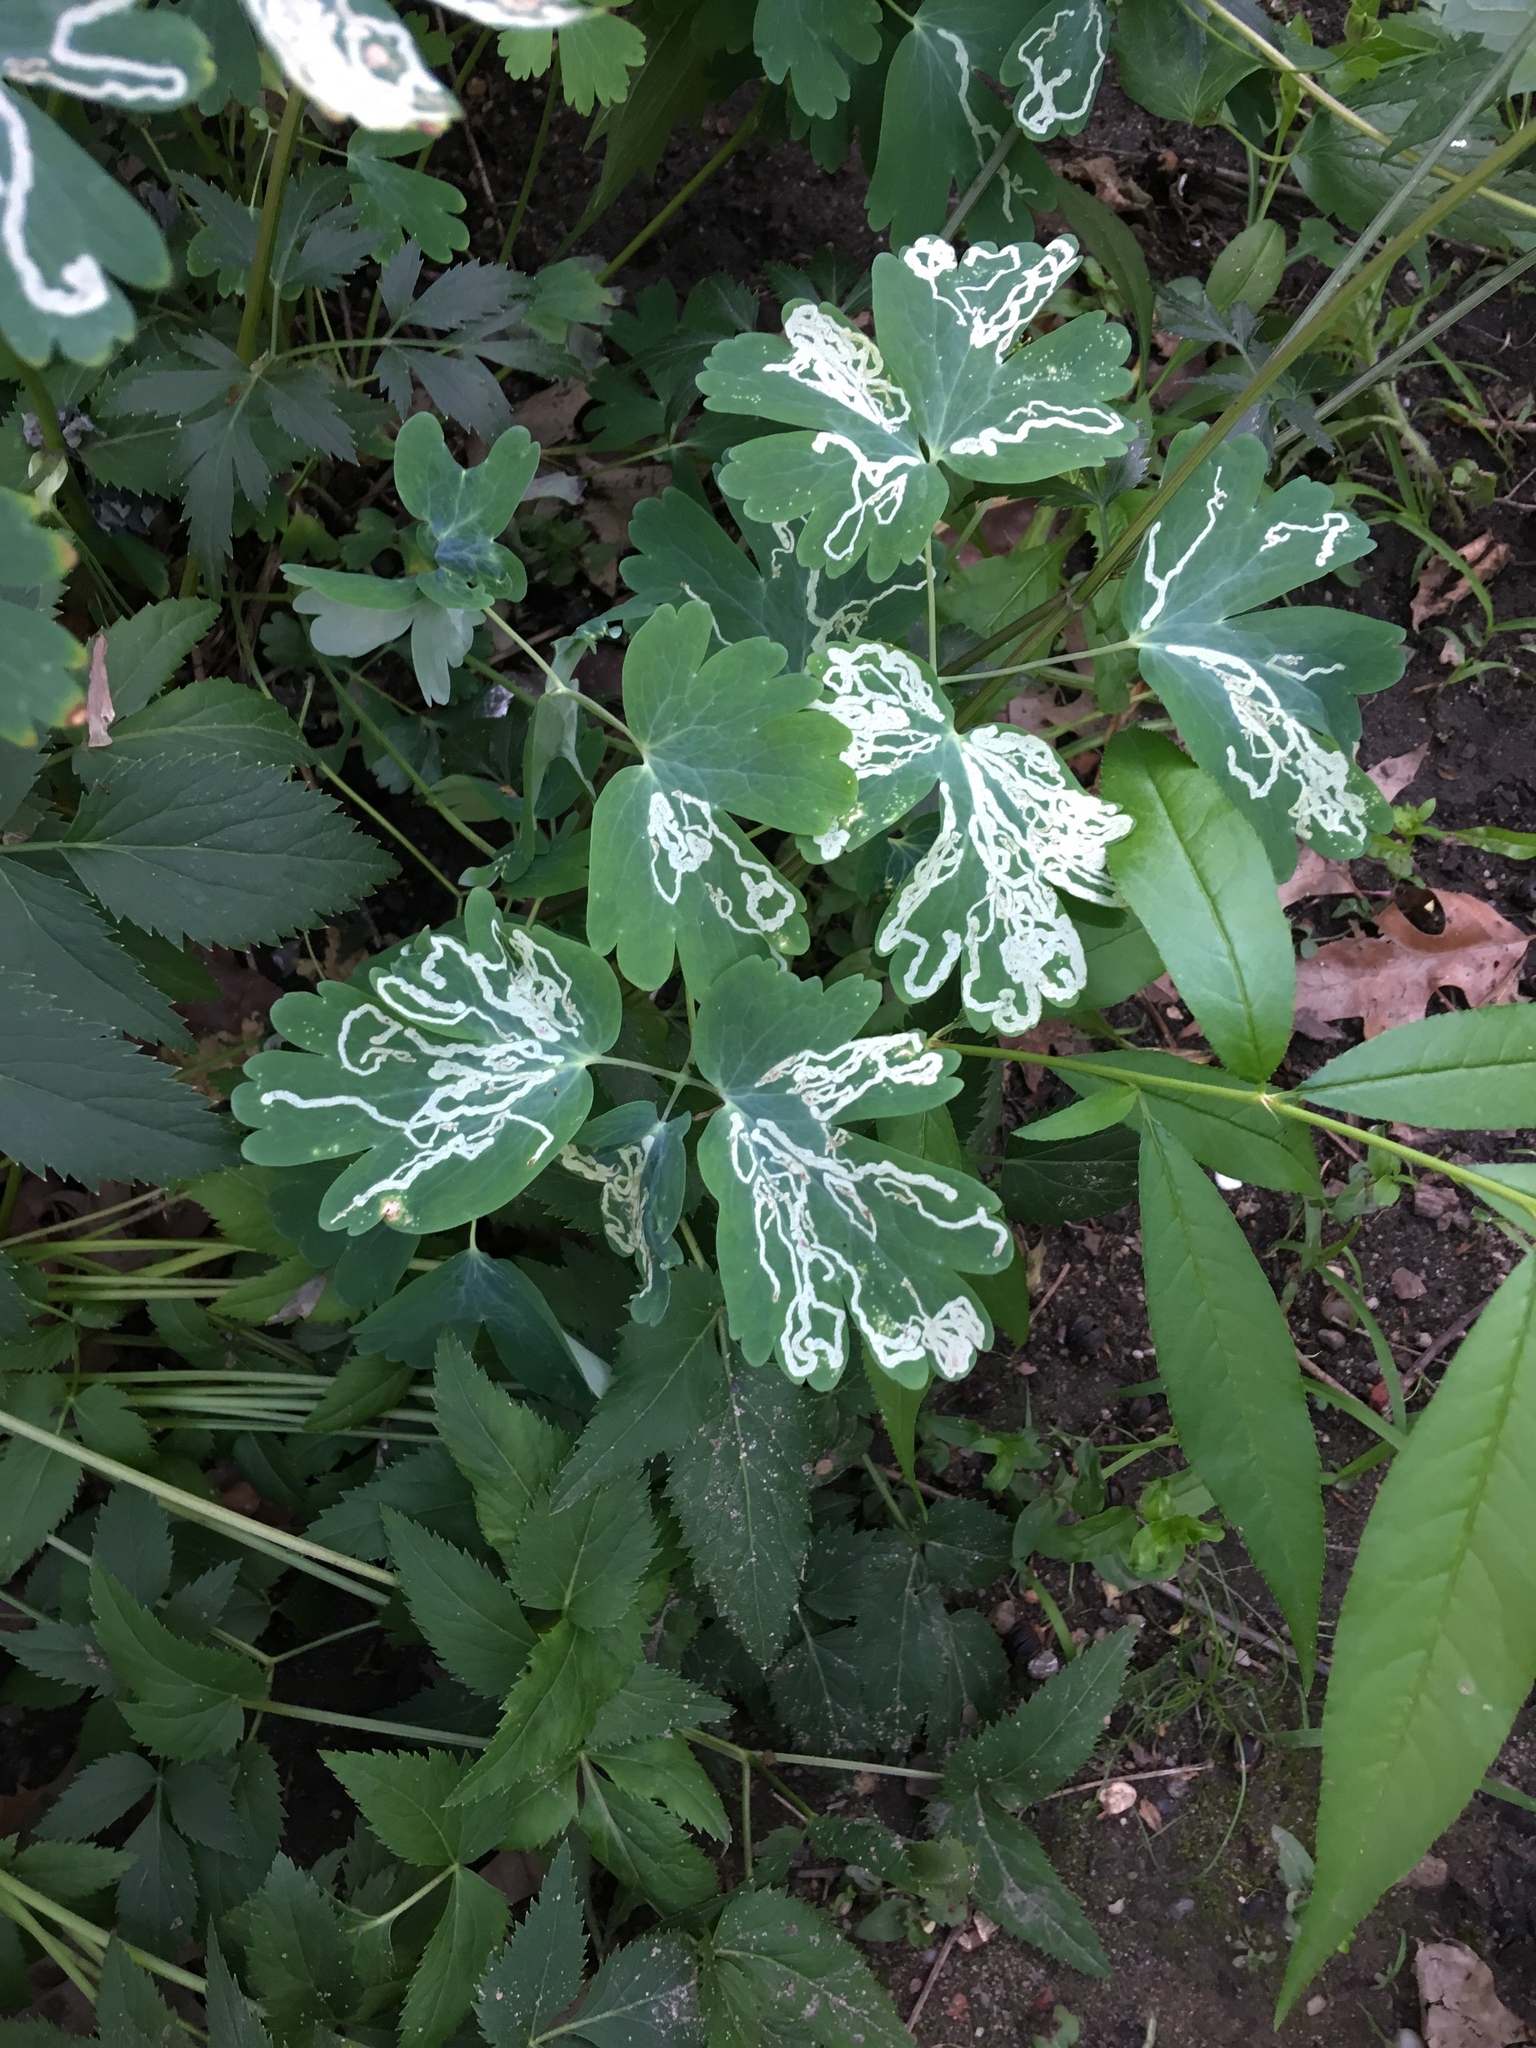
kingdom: Animalia
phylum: Arthropoda
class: Insecta
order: Diptera
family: Agromyzidae
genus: Phytomyza
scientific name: Phytomyza
